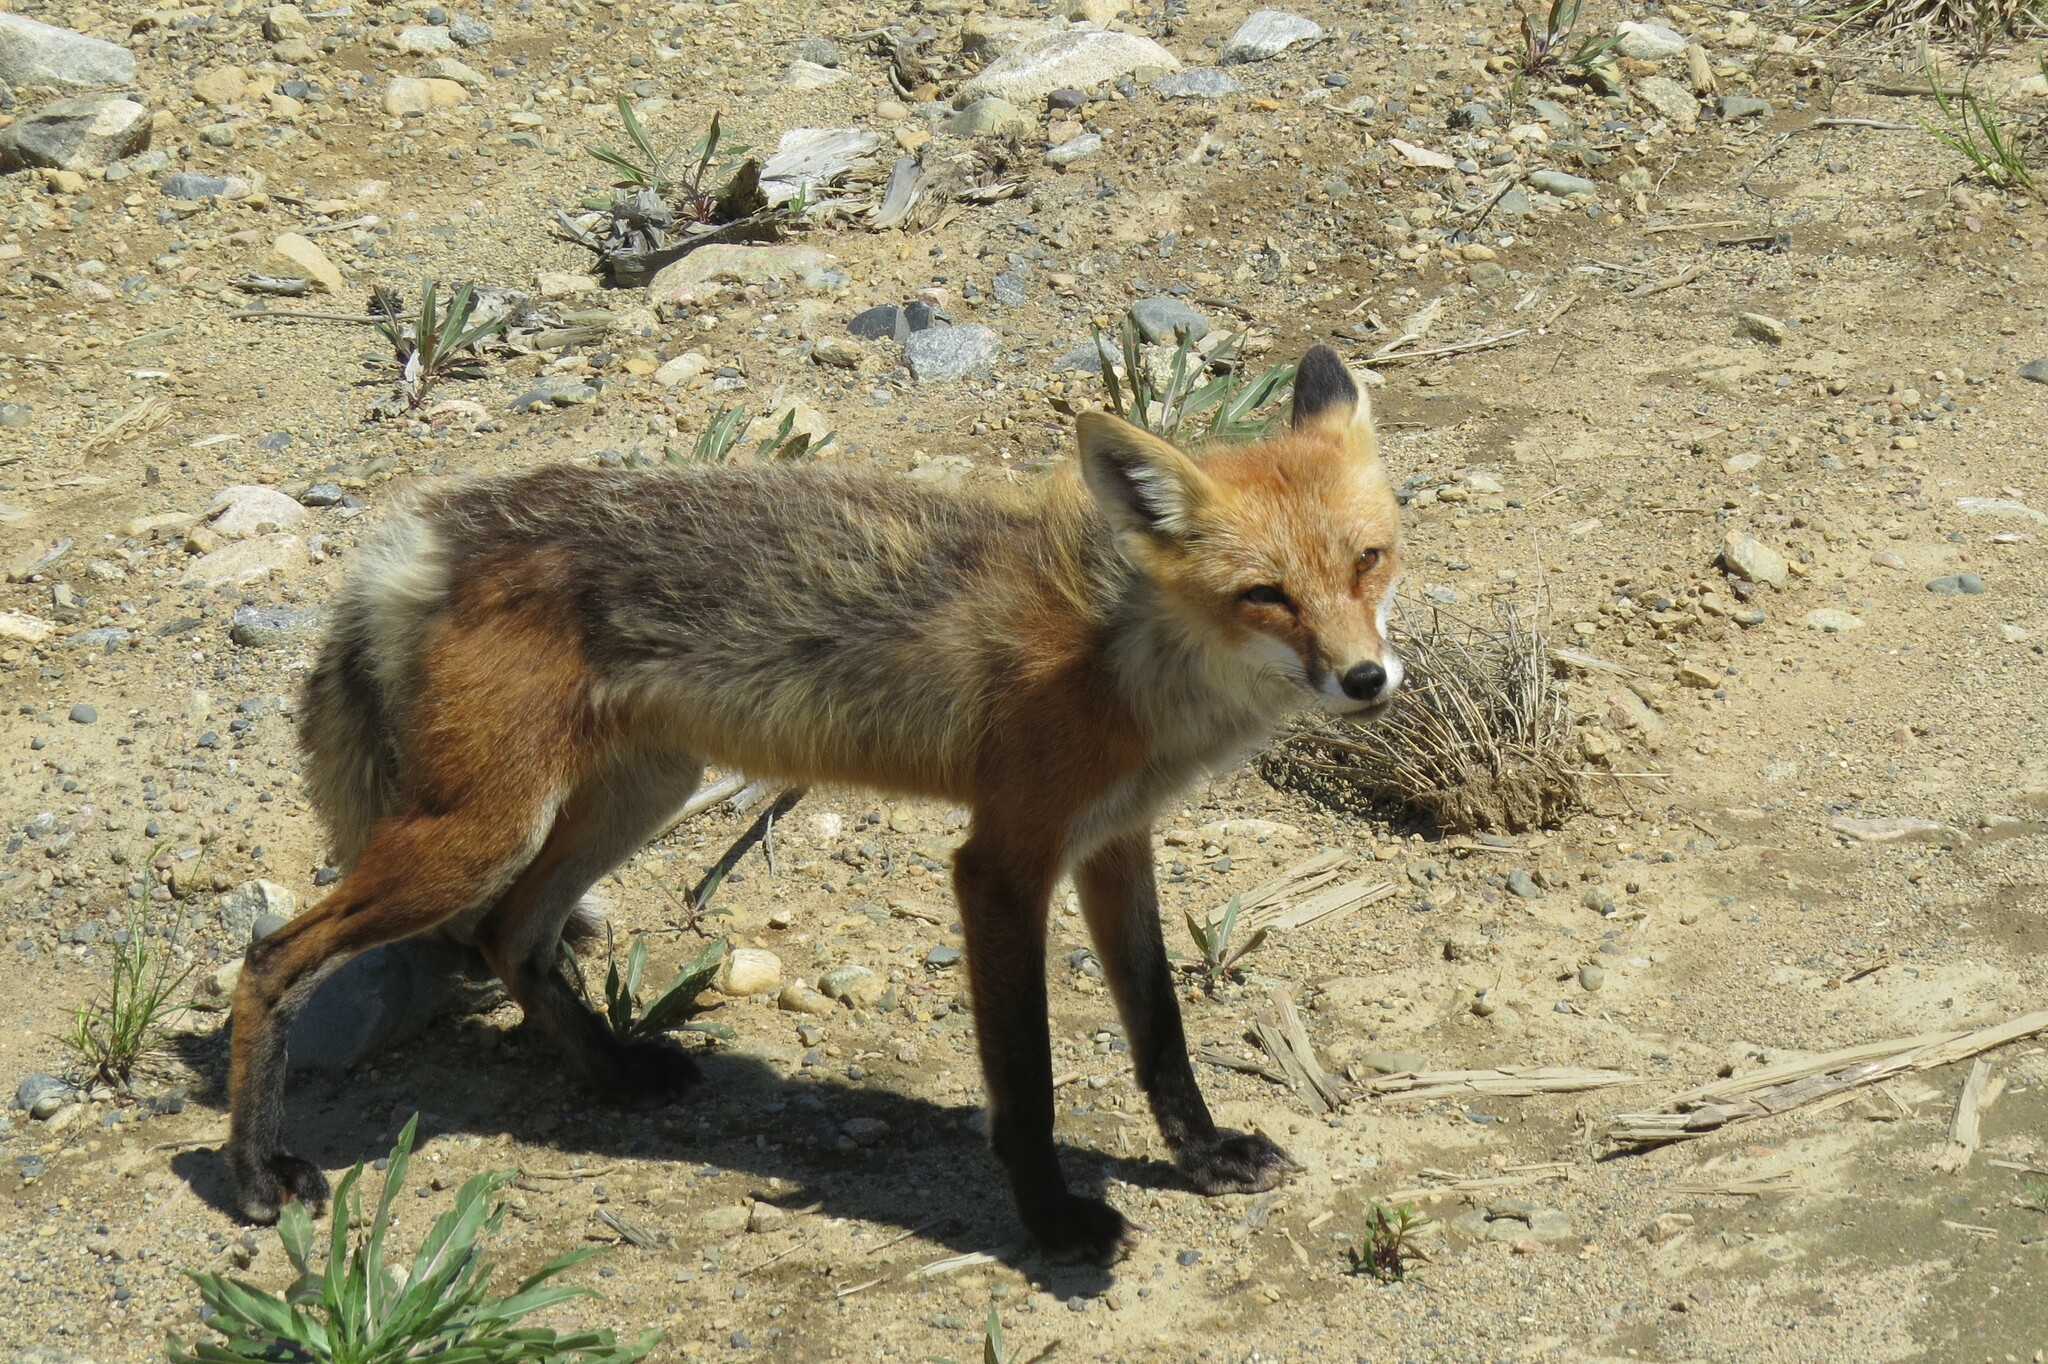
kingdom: Animalia
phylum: Chordata
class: Mammalia
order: Carnivora
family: Canidae
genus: Vulpes
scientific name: Vulpes vulpes
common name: Red fox
